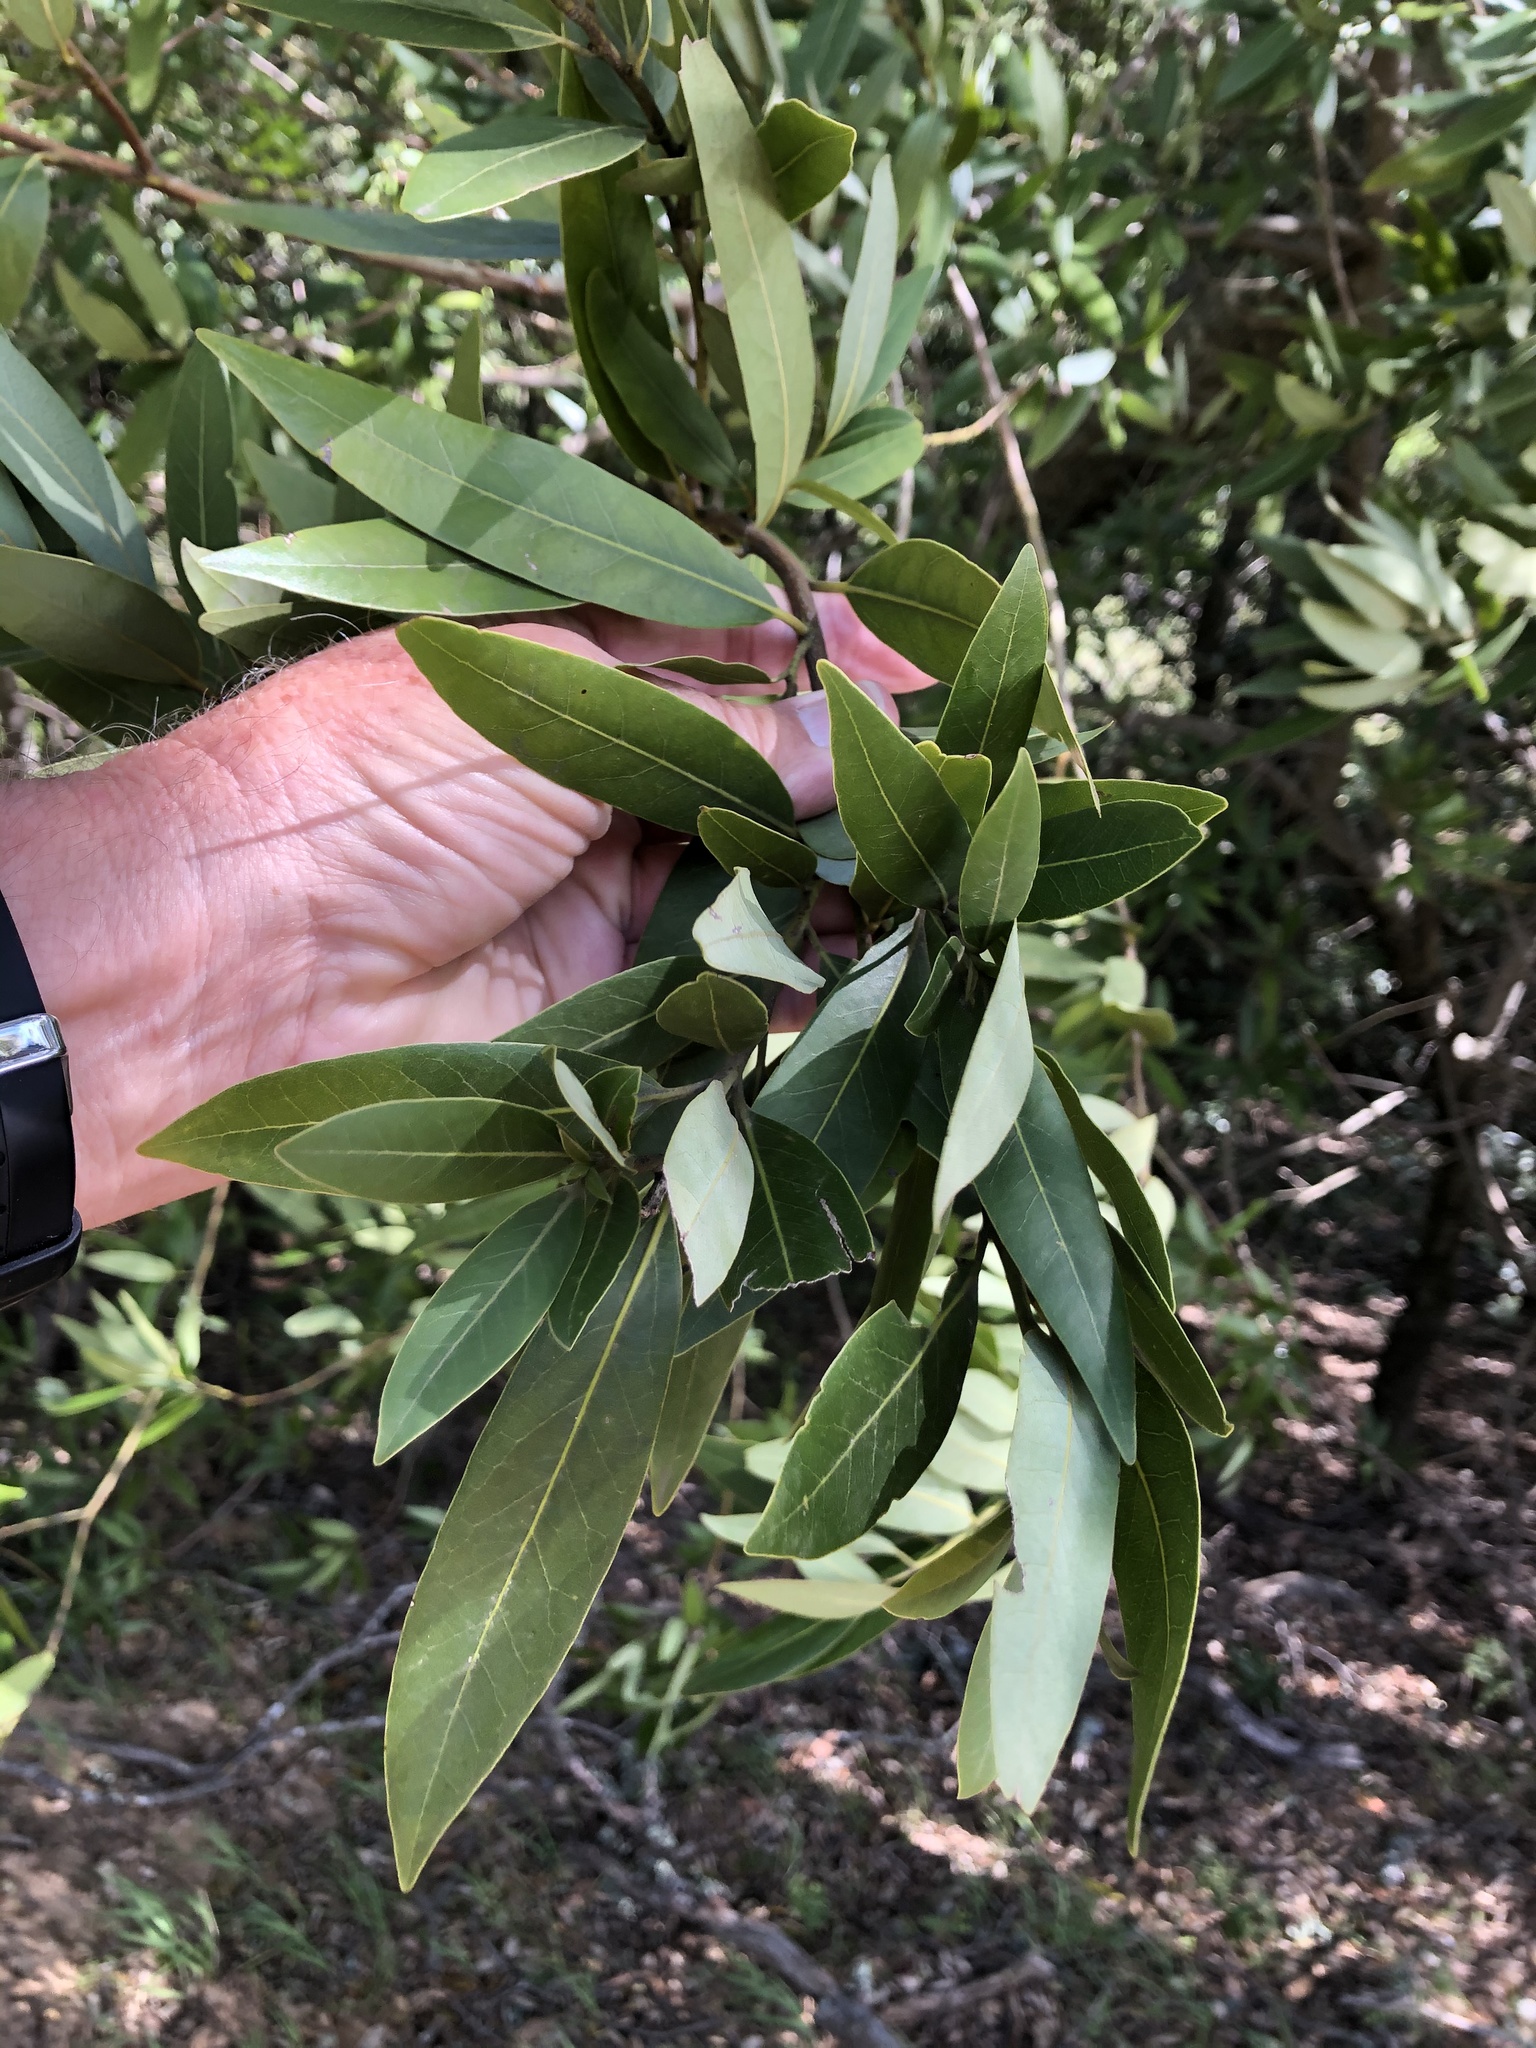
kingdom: Plantae
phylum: Tracheophyta
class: Magnoliopsida
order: Laurales
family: Lauraceae
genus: Umbellularia
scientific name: Umbellularia californica
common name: California bay
